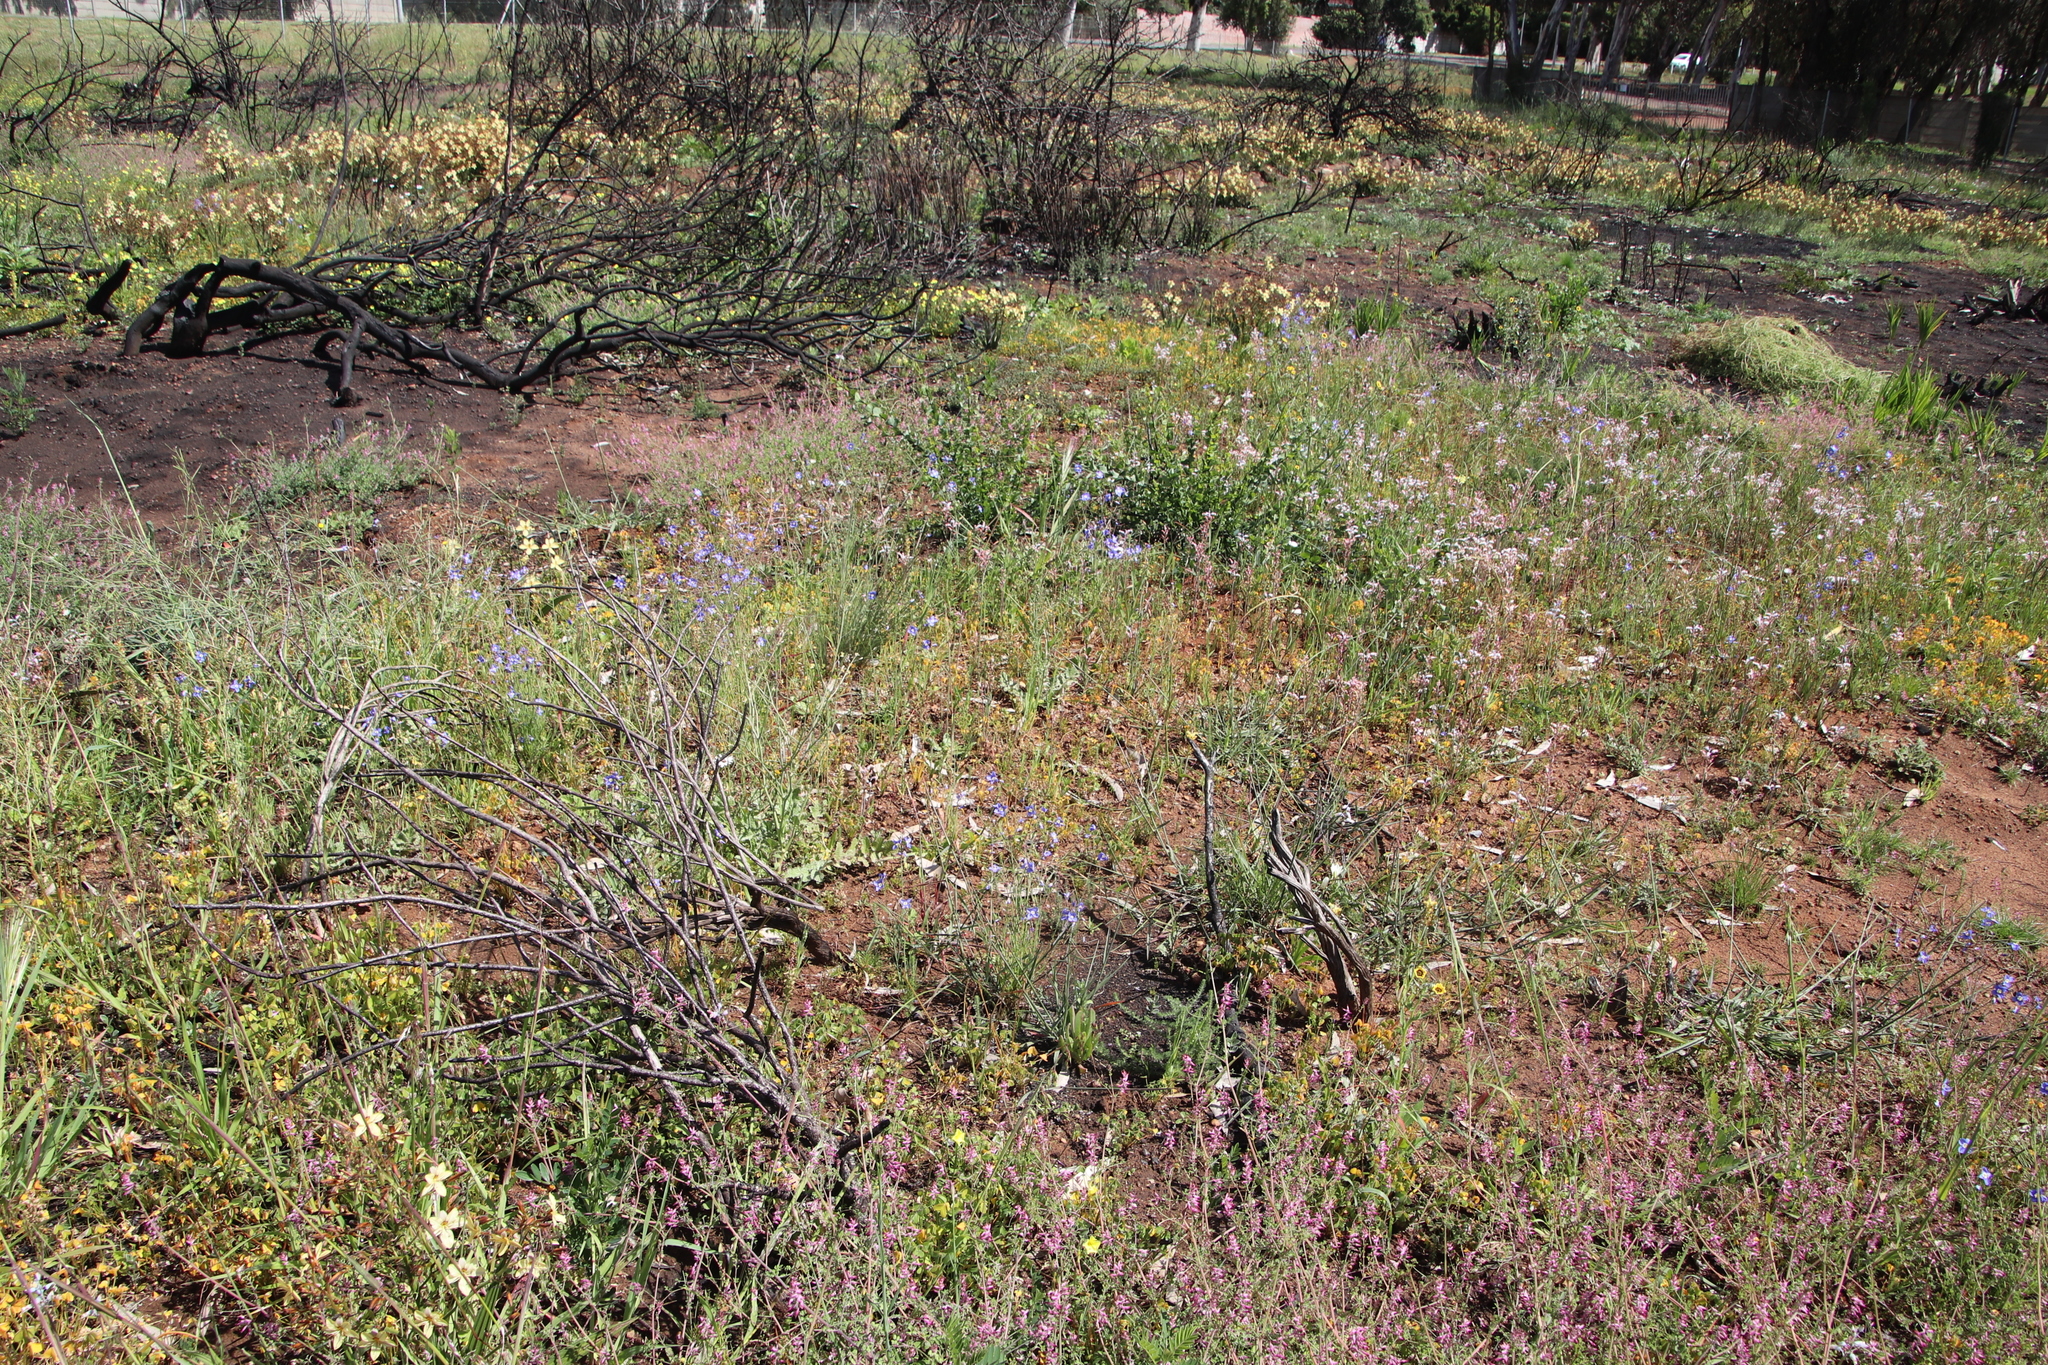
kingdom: Plantae
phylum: Tracheophyta
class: Magnoliopsida
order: Brassicales
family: Brassicaceae
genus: Heliophila
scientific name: Heliophila coronopifolia
